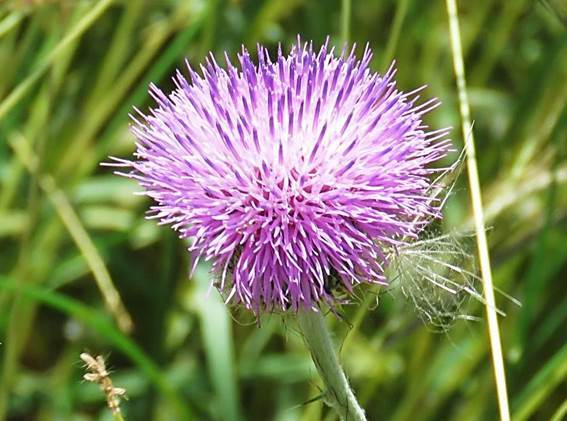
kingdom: Plantae
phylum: Tracheophyta
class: Magnoliopsida
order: Asterales
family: Asteraceae
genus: Cirsium
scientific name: Cirsium texanum
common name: Texas purple thistle
